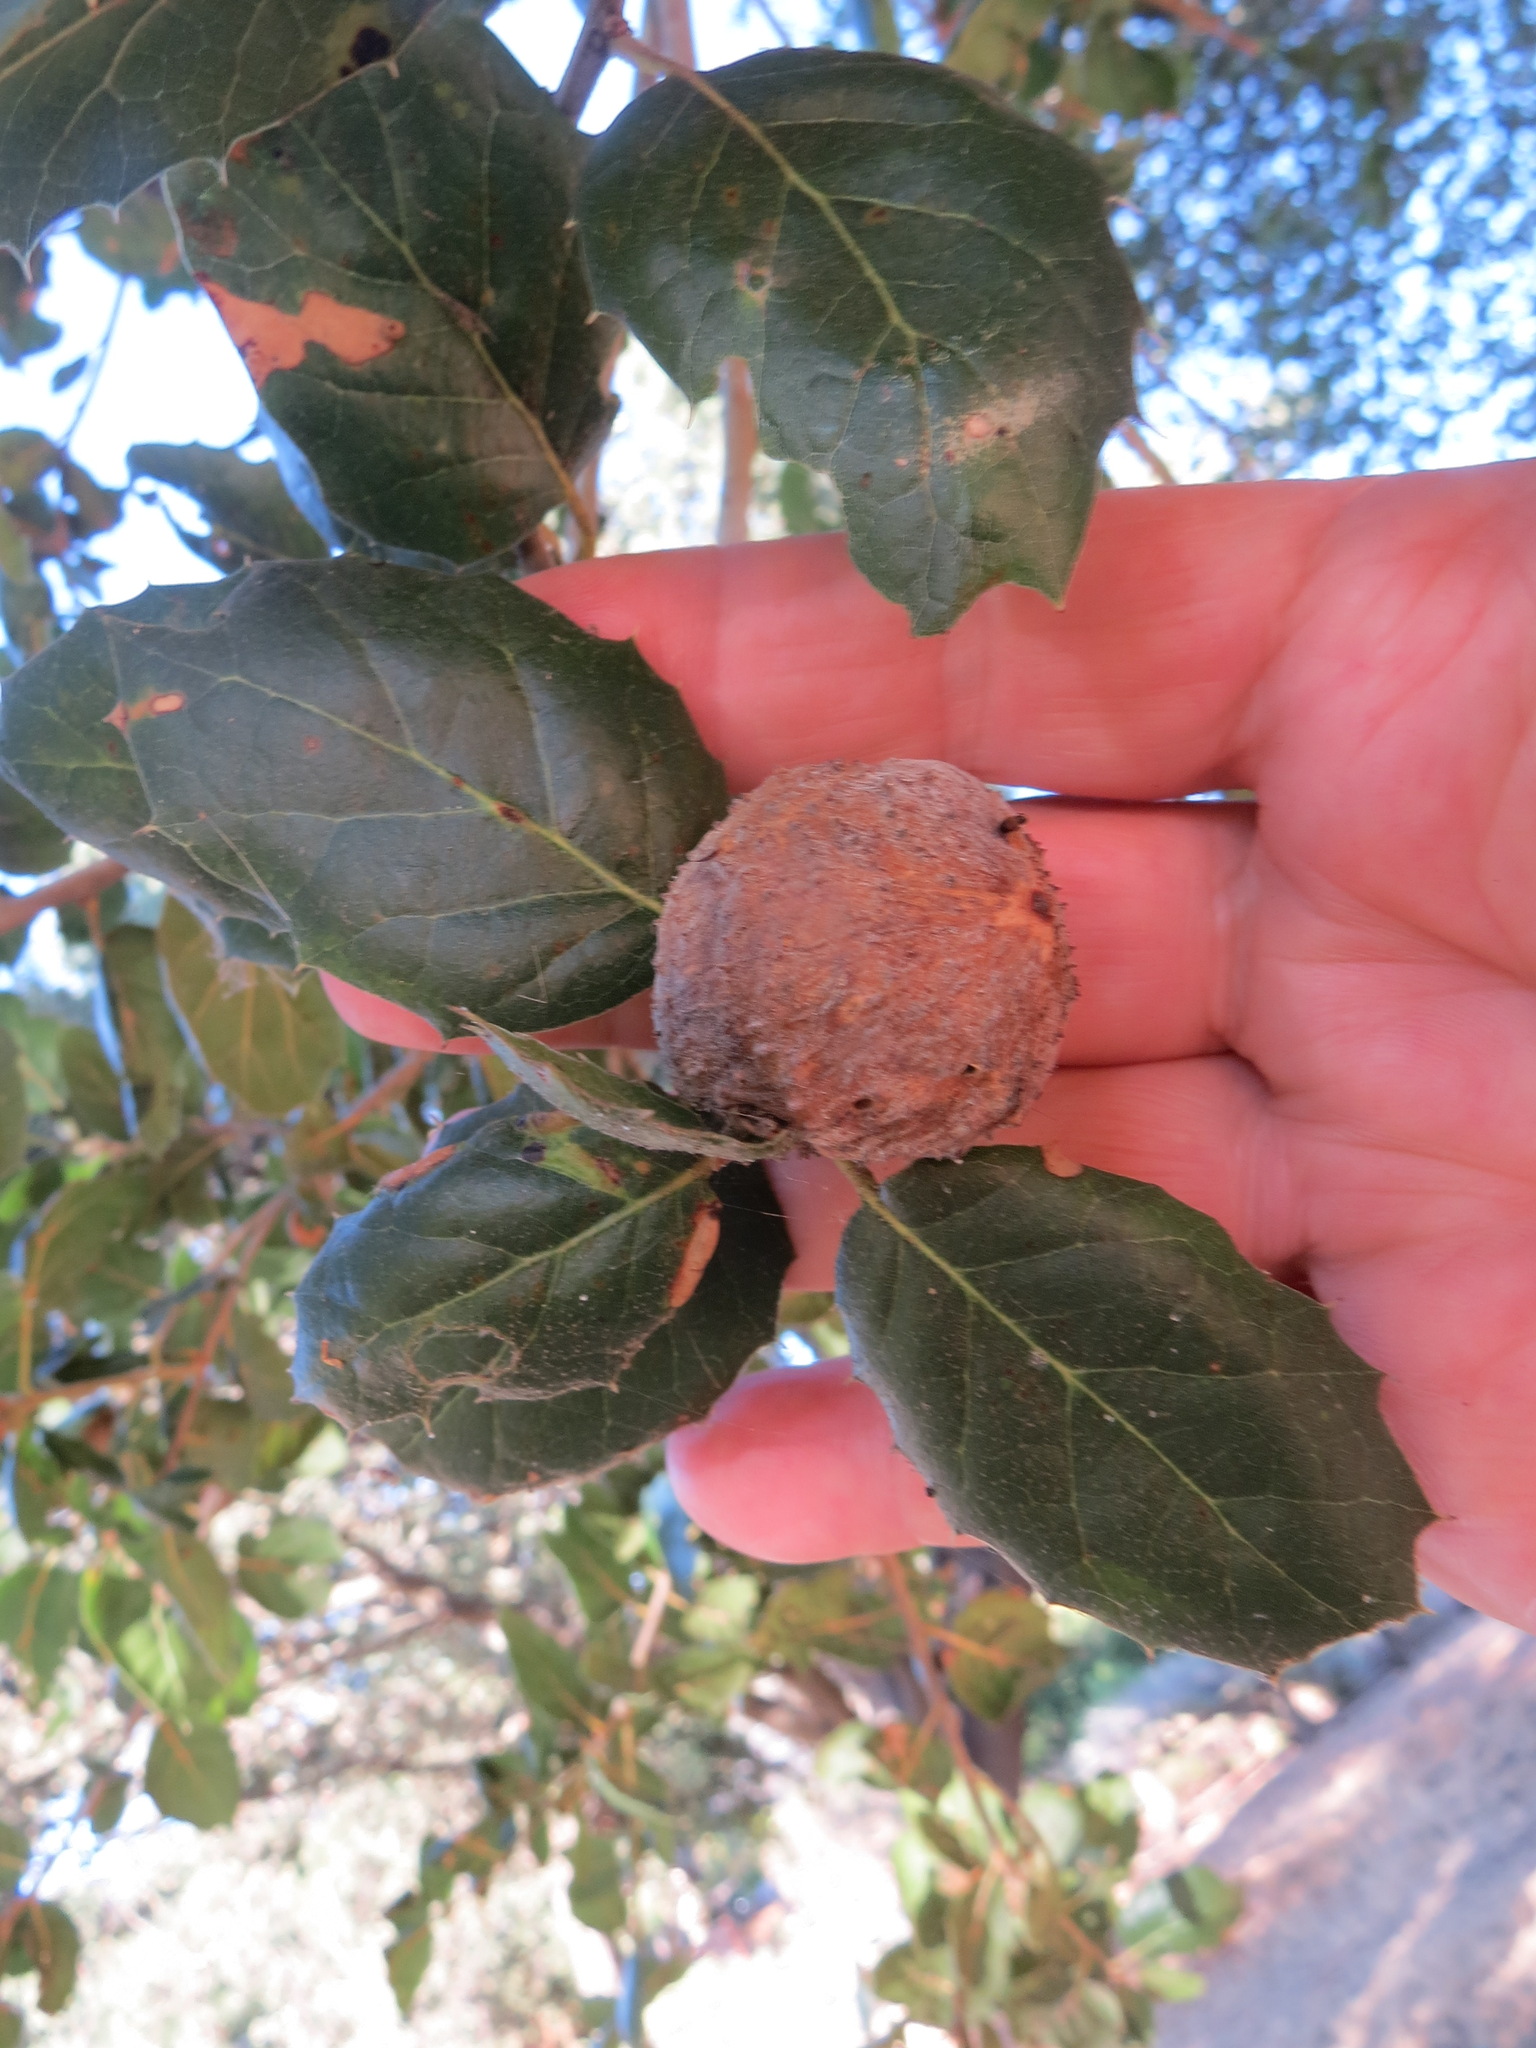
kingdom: Animalia
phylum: Arthropoda
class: Insecta
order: Hymenoptera
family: Cynipidae
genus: Amphibolips
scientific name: Amphibolips quercuspomiformis
